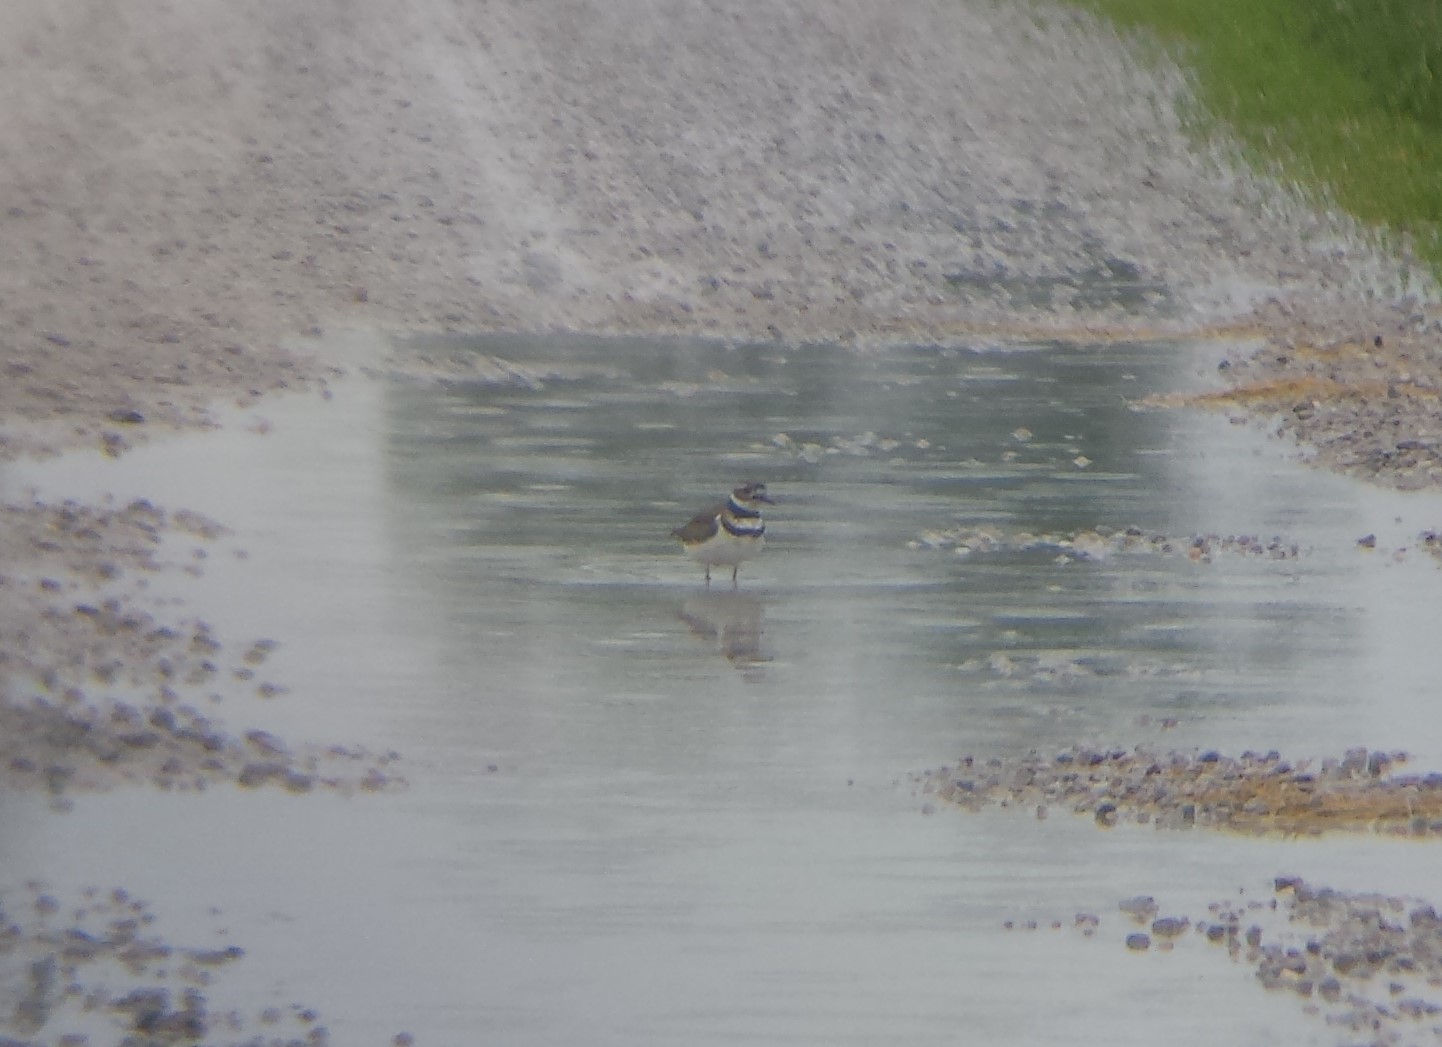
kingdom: Animalia
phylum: Chordata
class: Aves
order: Charadriiformes
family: Charadriidae
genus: Charadrius
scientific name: Charadrius vociferus
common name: Killdeer
